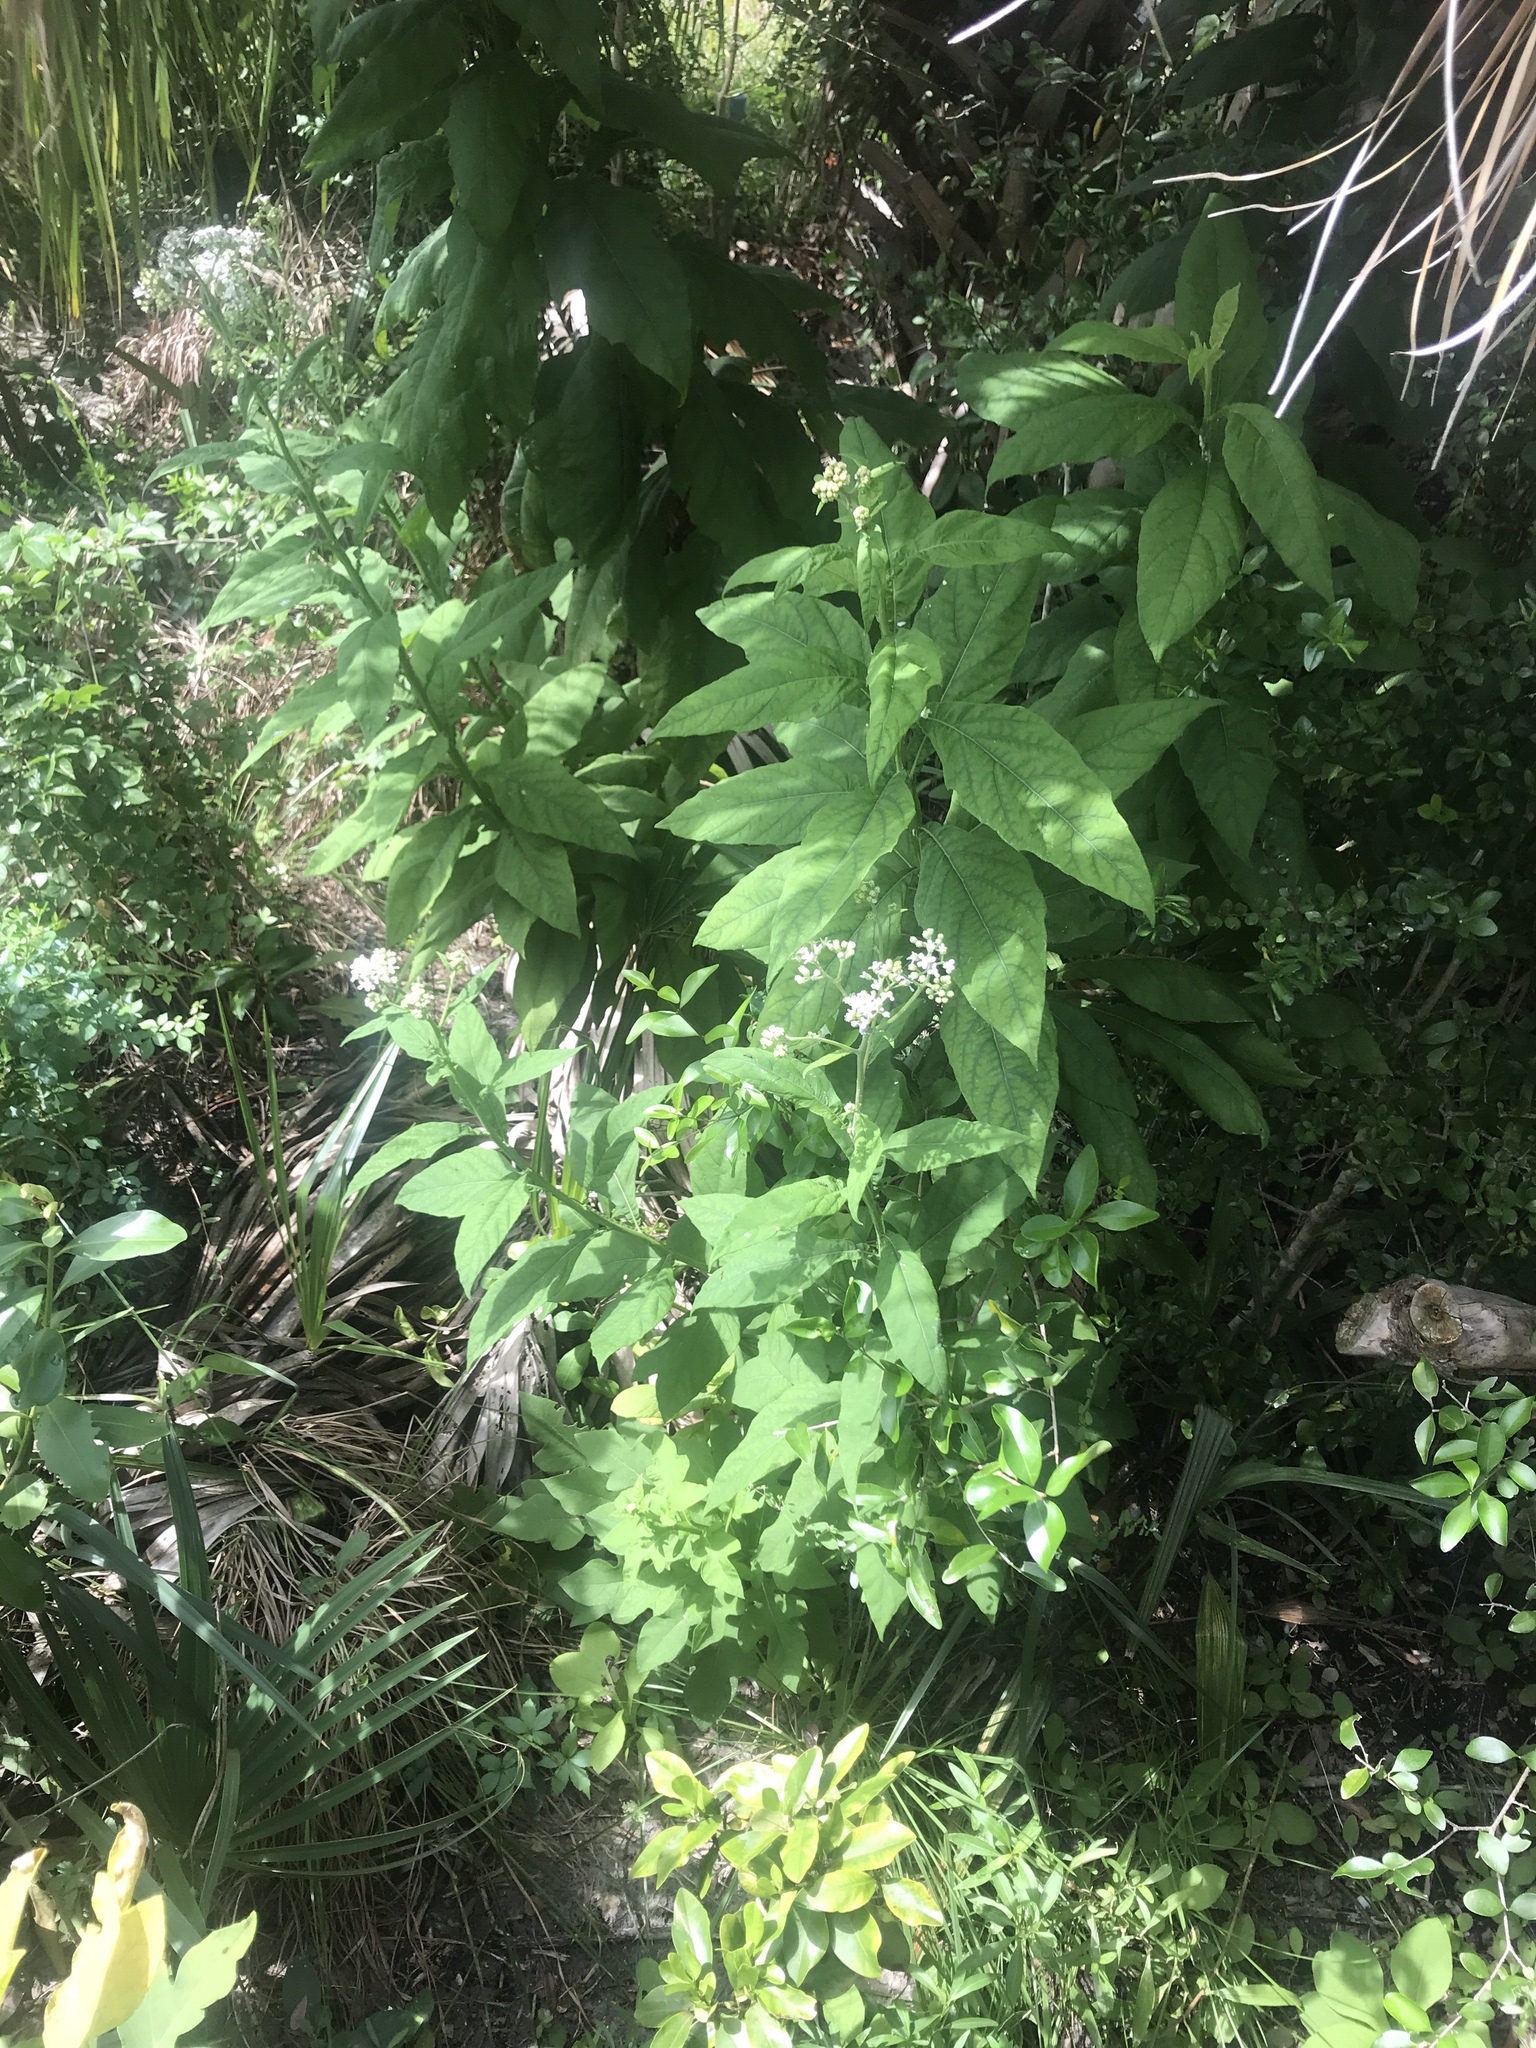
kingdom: Plantae
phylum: Tracheophyta
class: Magnoliopsida
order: Asterales
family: Asteraceae
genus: Verbesina
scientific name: Verbesina virginica
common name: Frostweed
